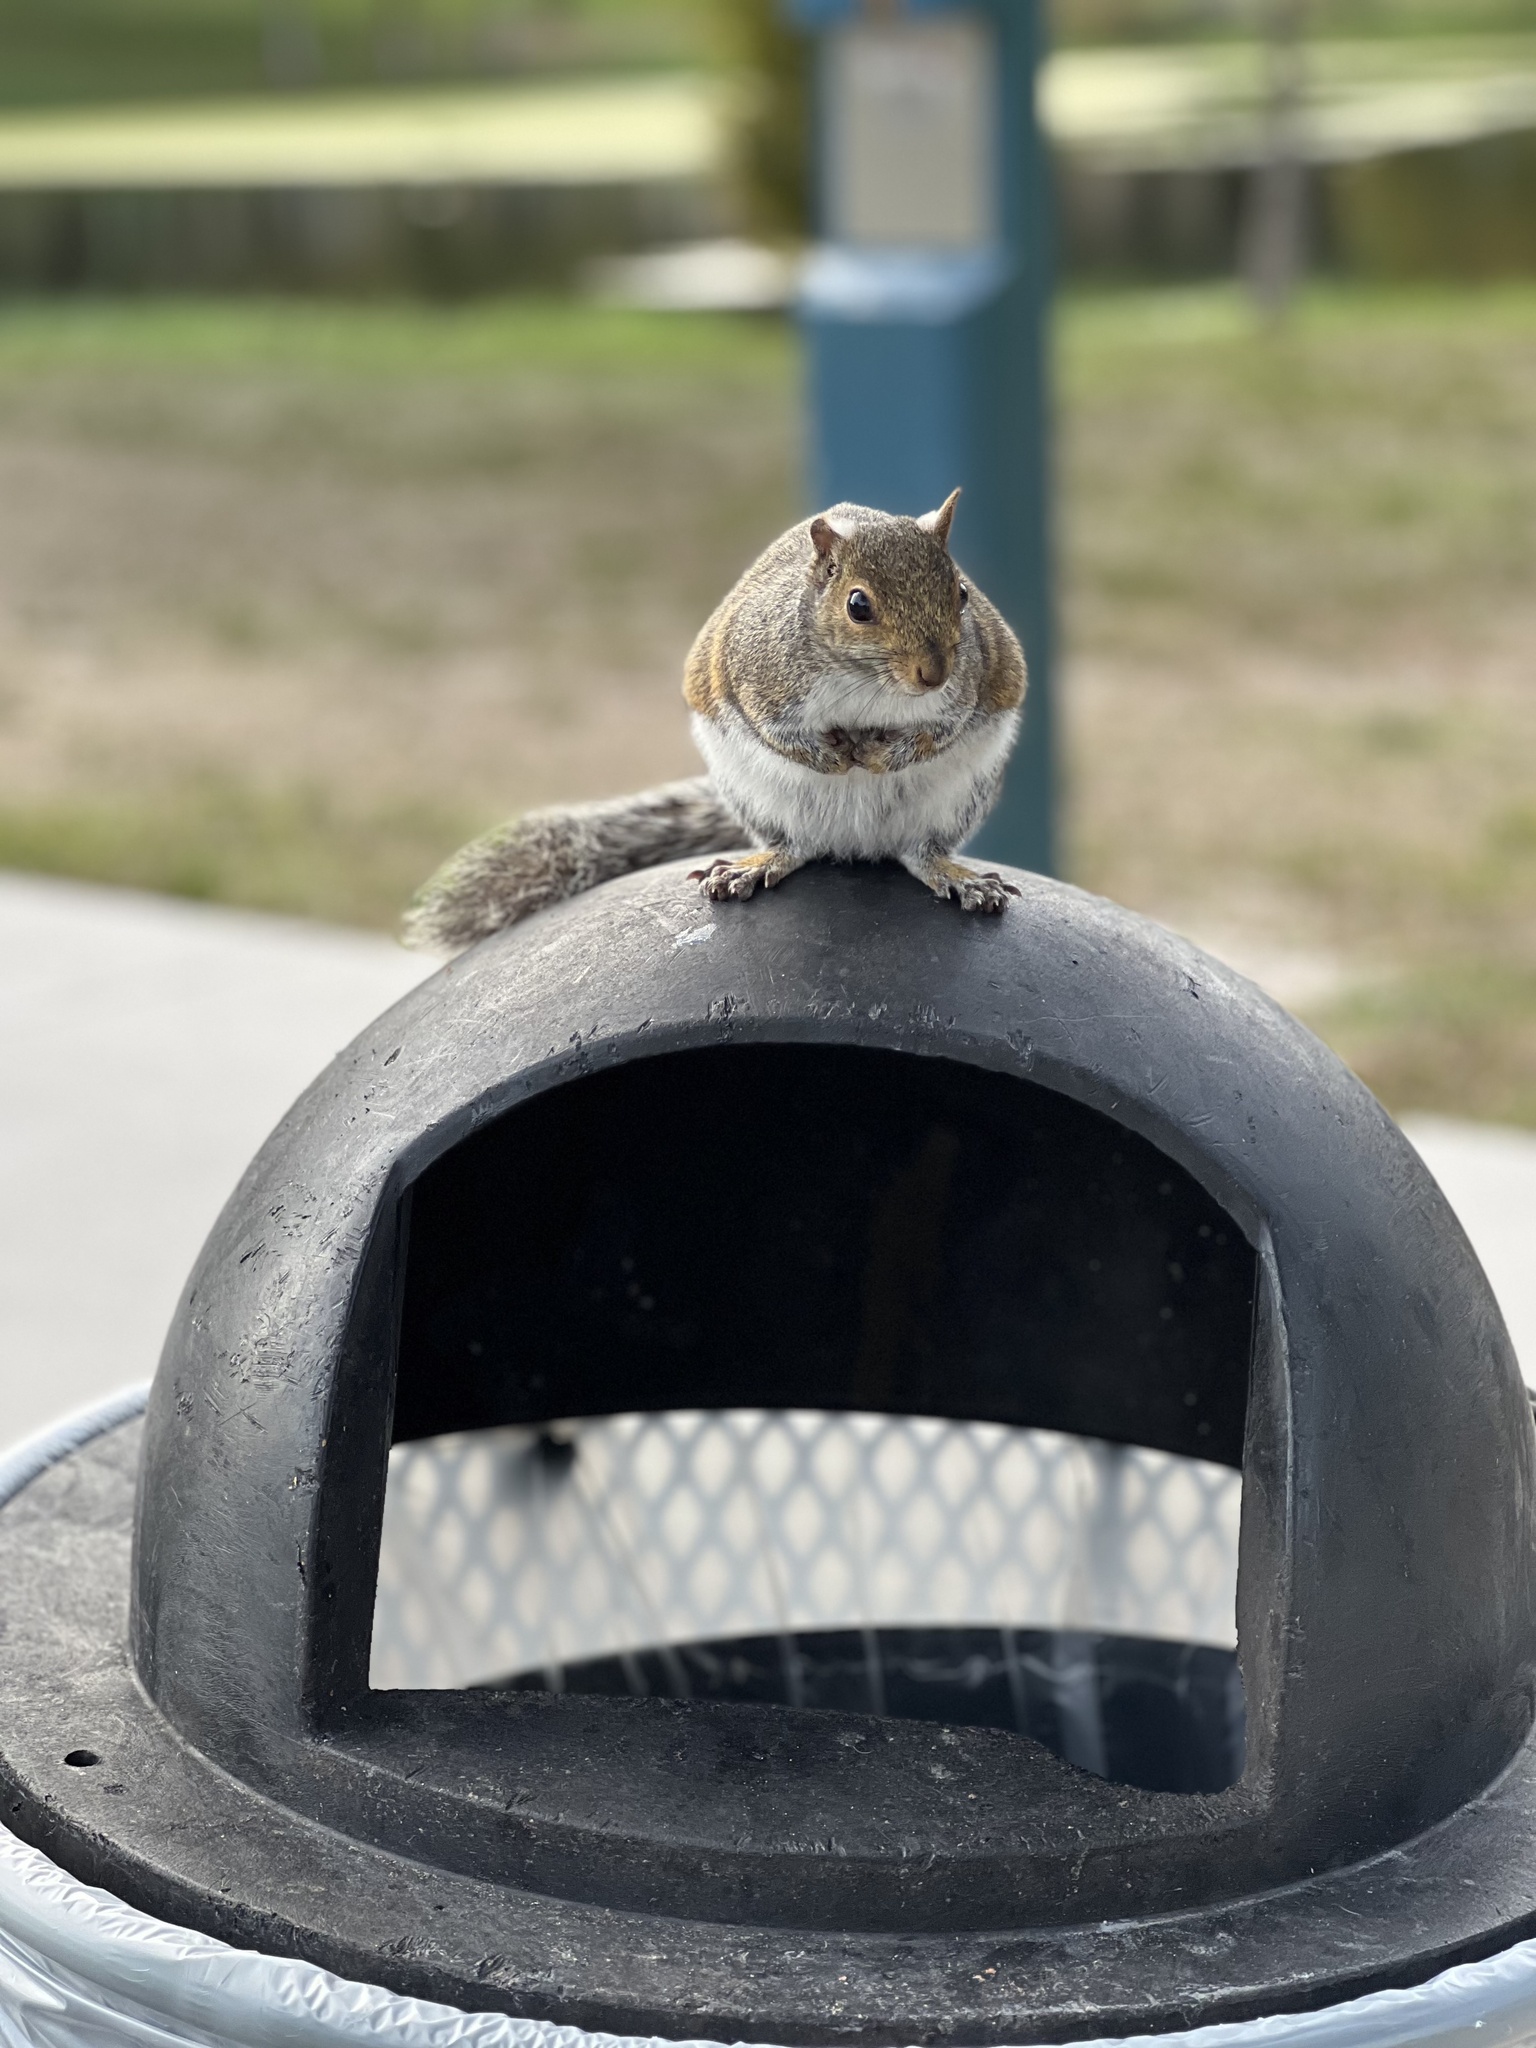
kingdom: Animalia
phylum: Chordata
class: Mammalia
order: Rodentia
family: Sciuridae
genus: Sciurus
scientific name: Sciurus carolinensis
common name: Eastern gray squirrel
